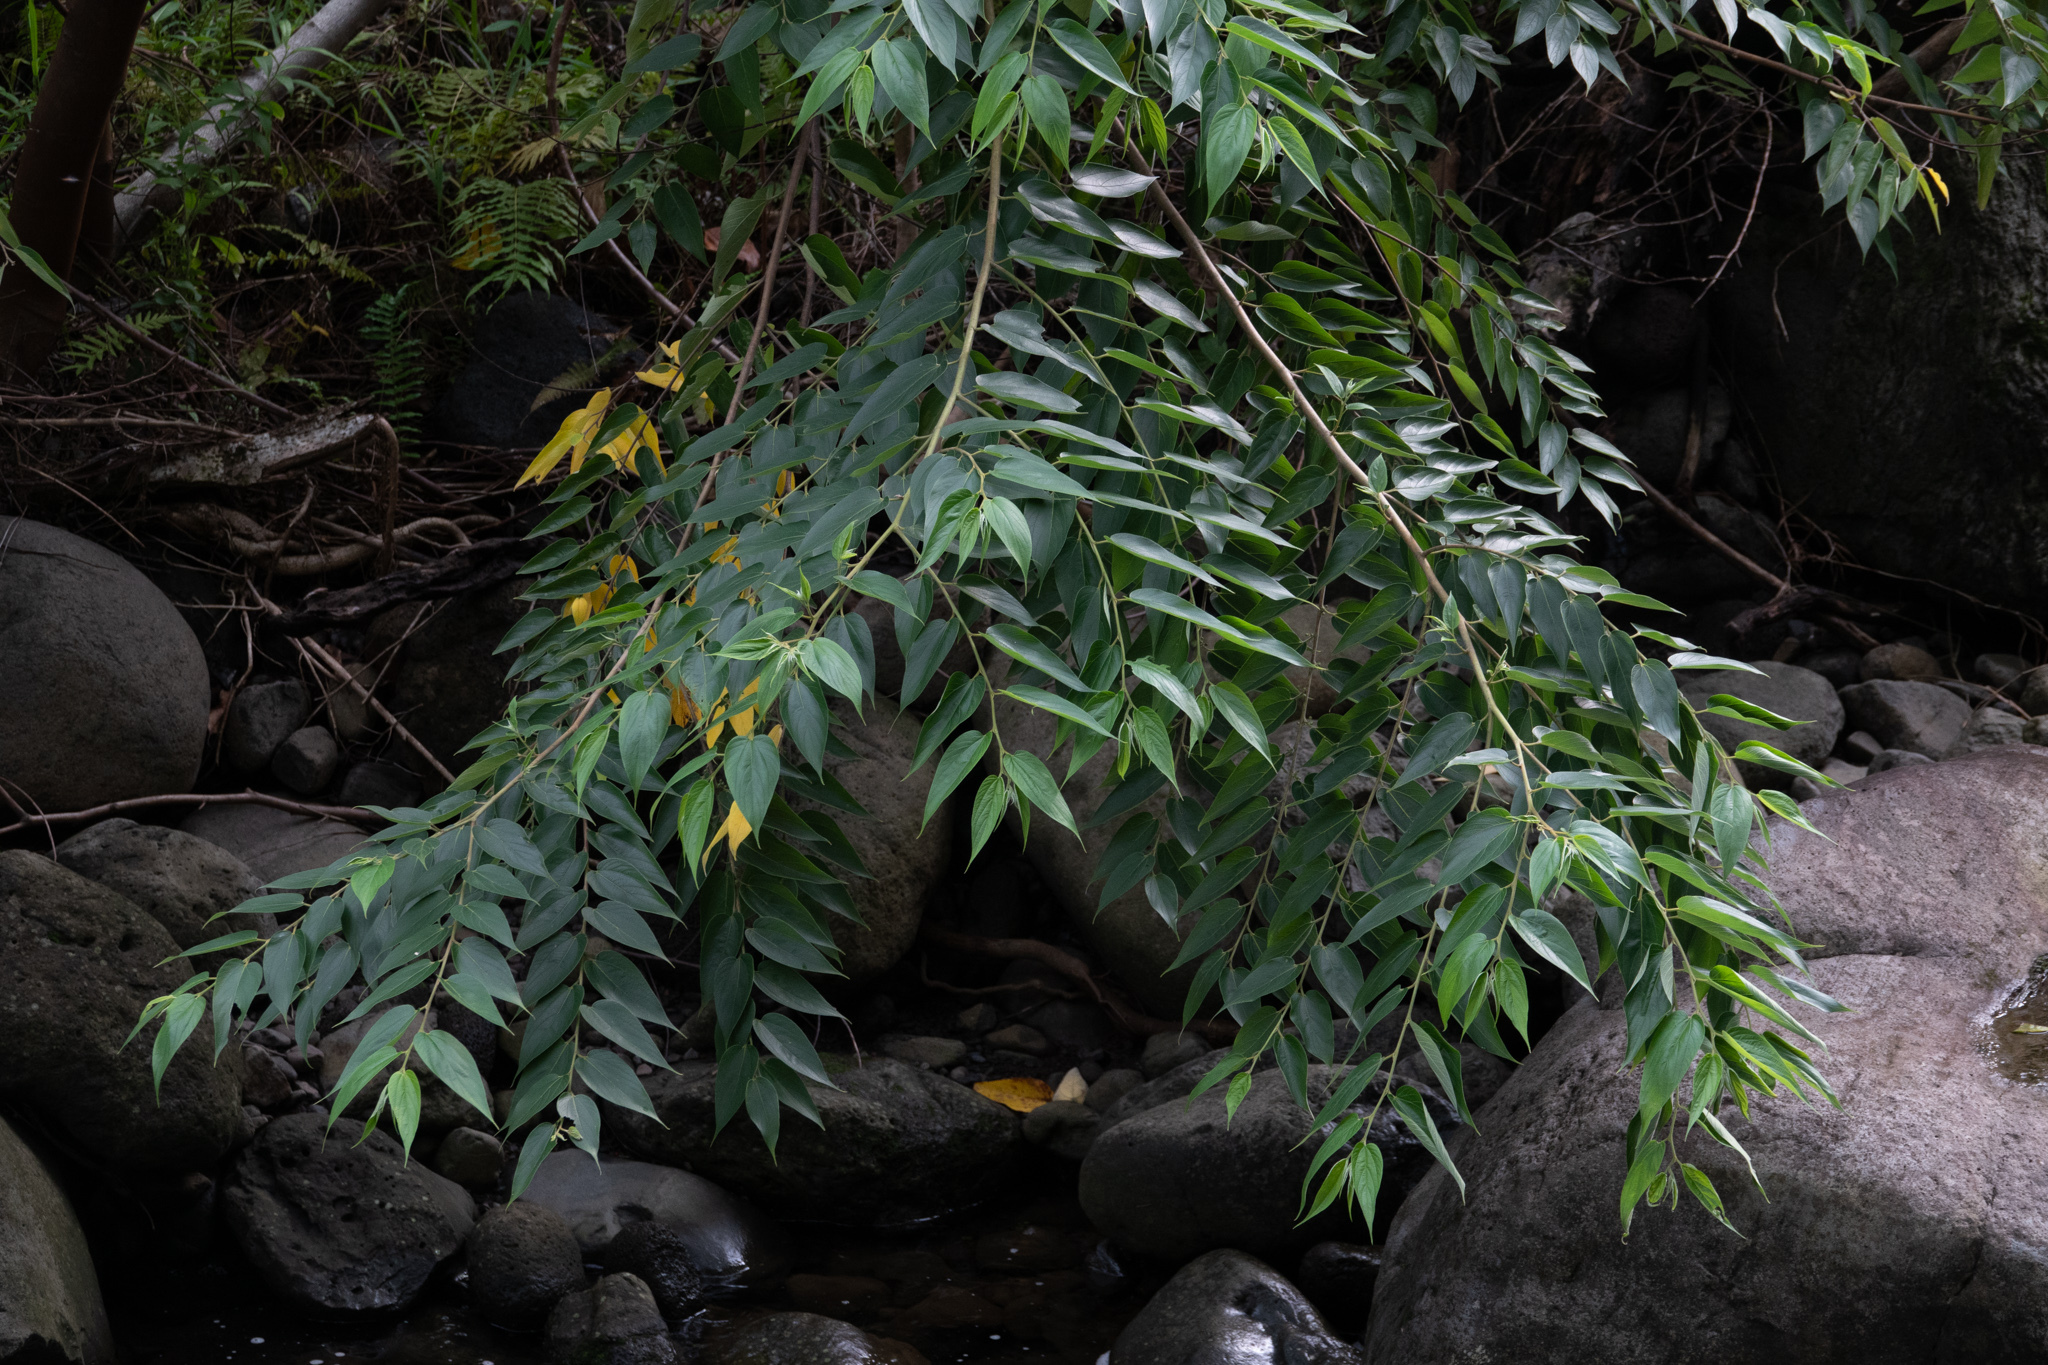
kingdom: Plantae
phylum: Tracheophyta
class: Magnoliopsida
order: Rosales
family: Cannabaceae
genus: Trema
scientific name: Trema orientale
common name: Indian charcoal tree
